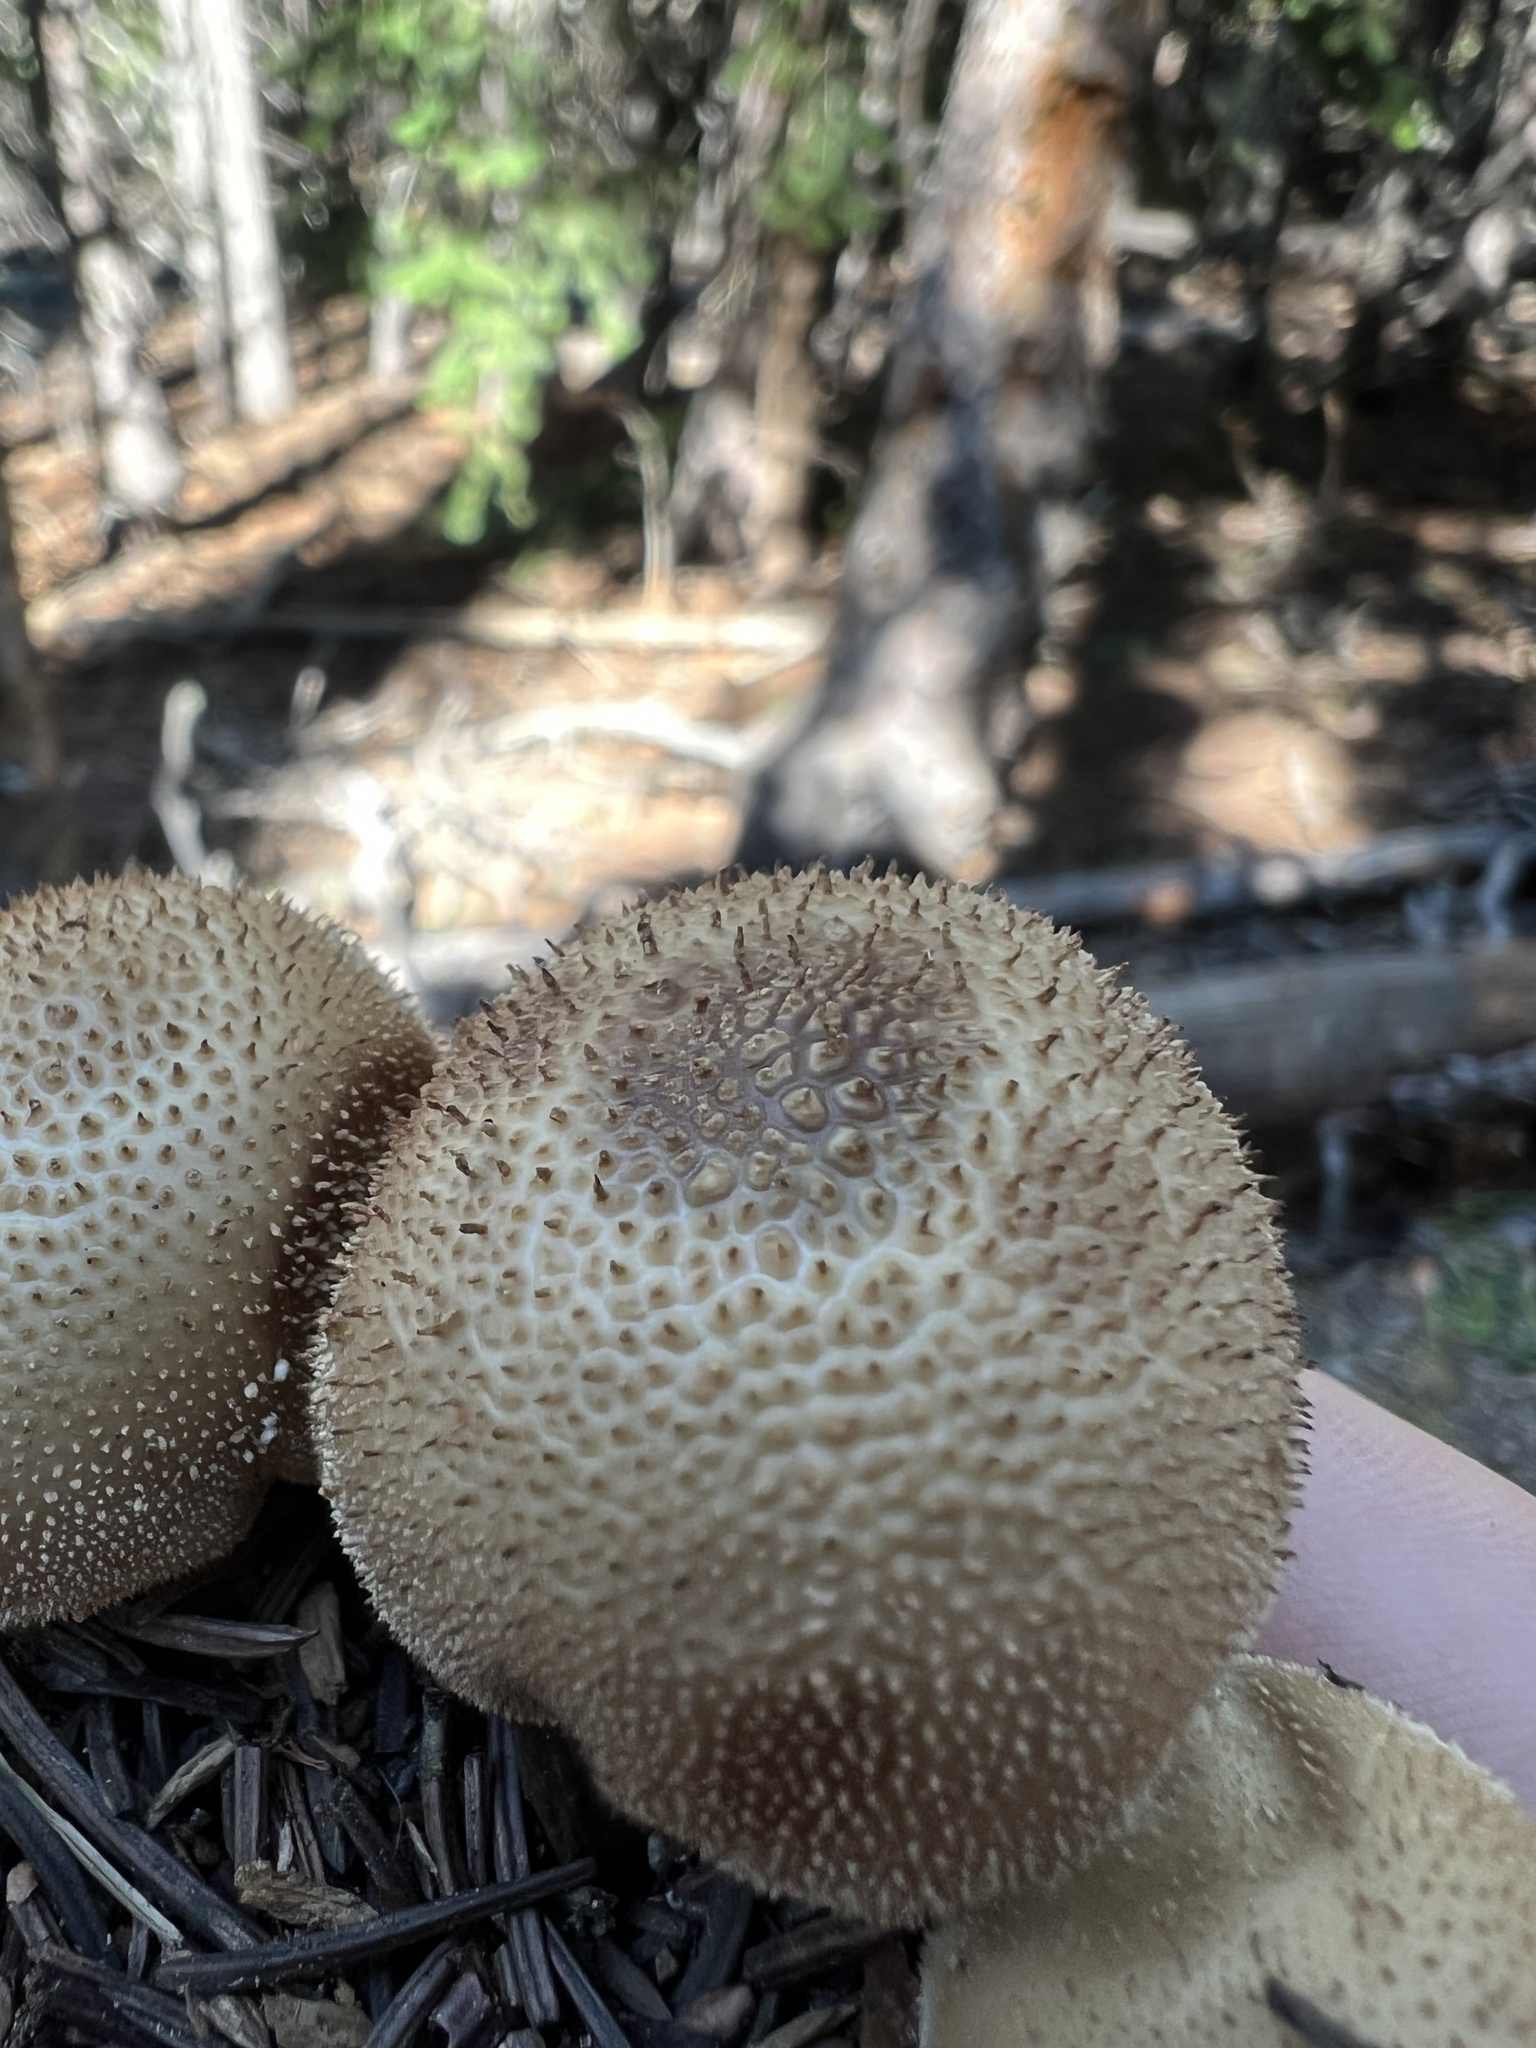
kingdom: Fungi
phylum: Basidiomycota
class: Agaricomycetes
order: Agaricales
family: Lycoperdaceae
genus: Lycoperdon
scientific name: Lycoperdon umbrinum
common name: Umber-brown puffball
